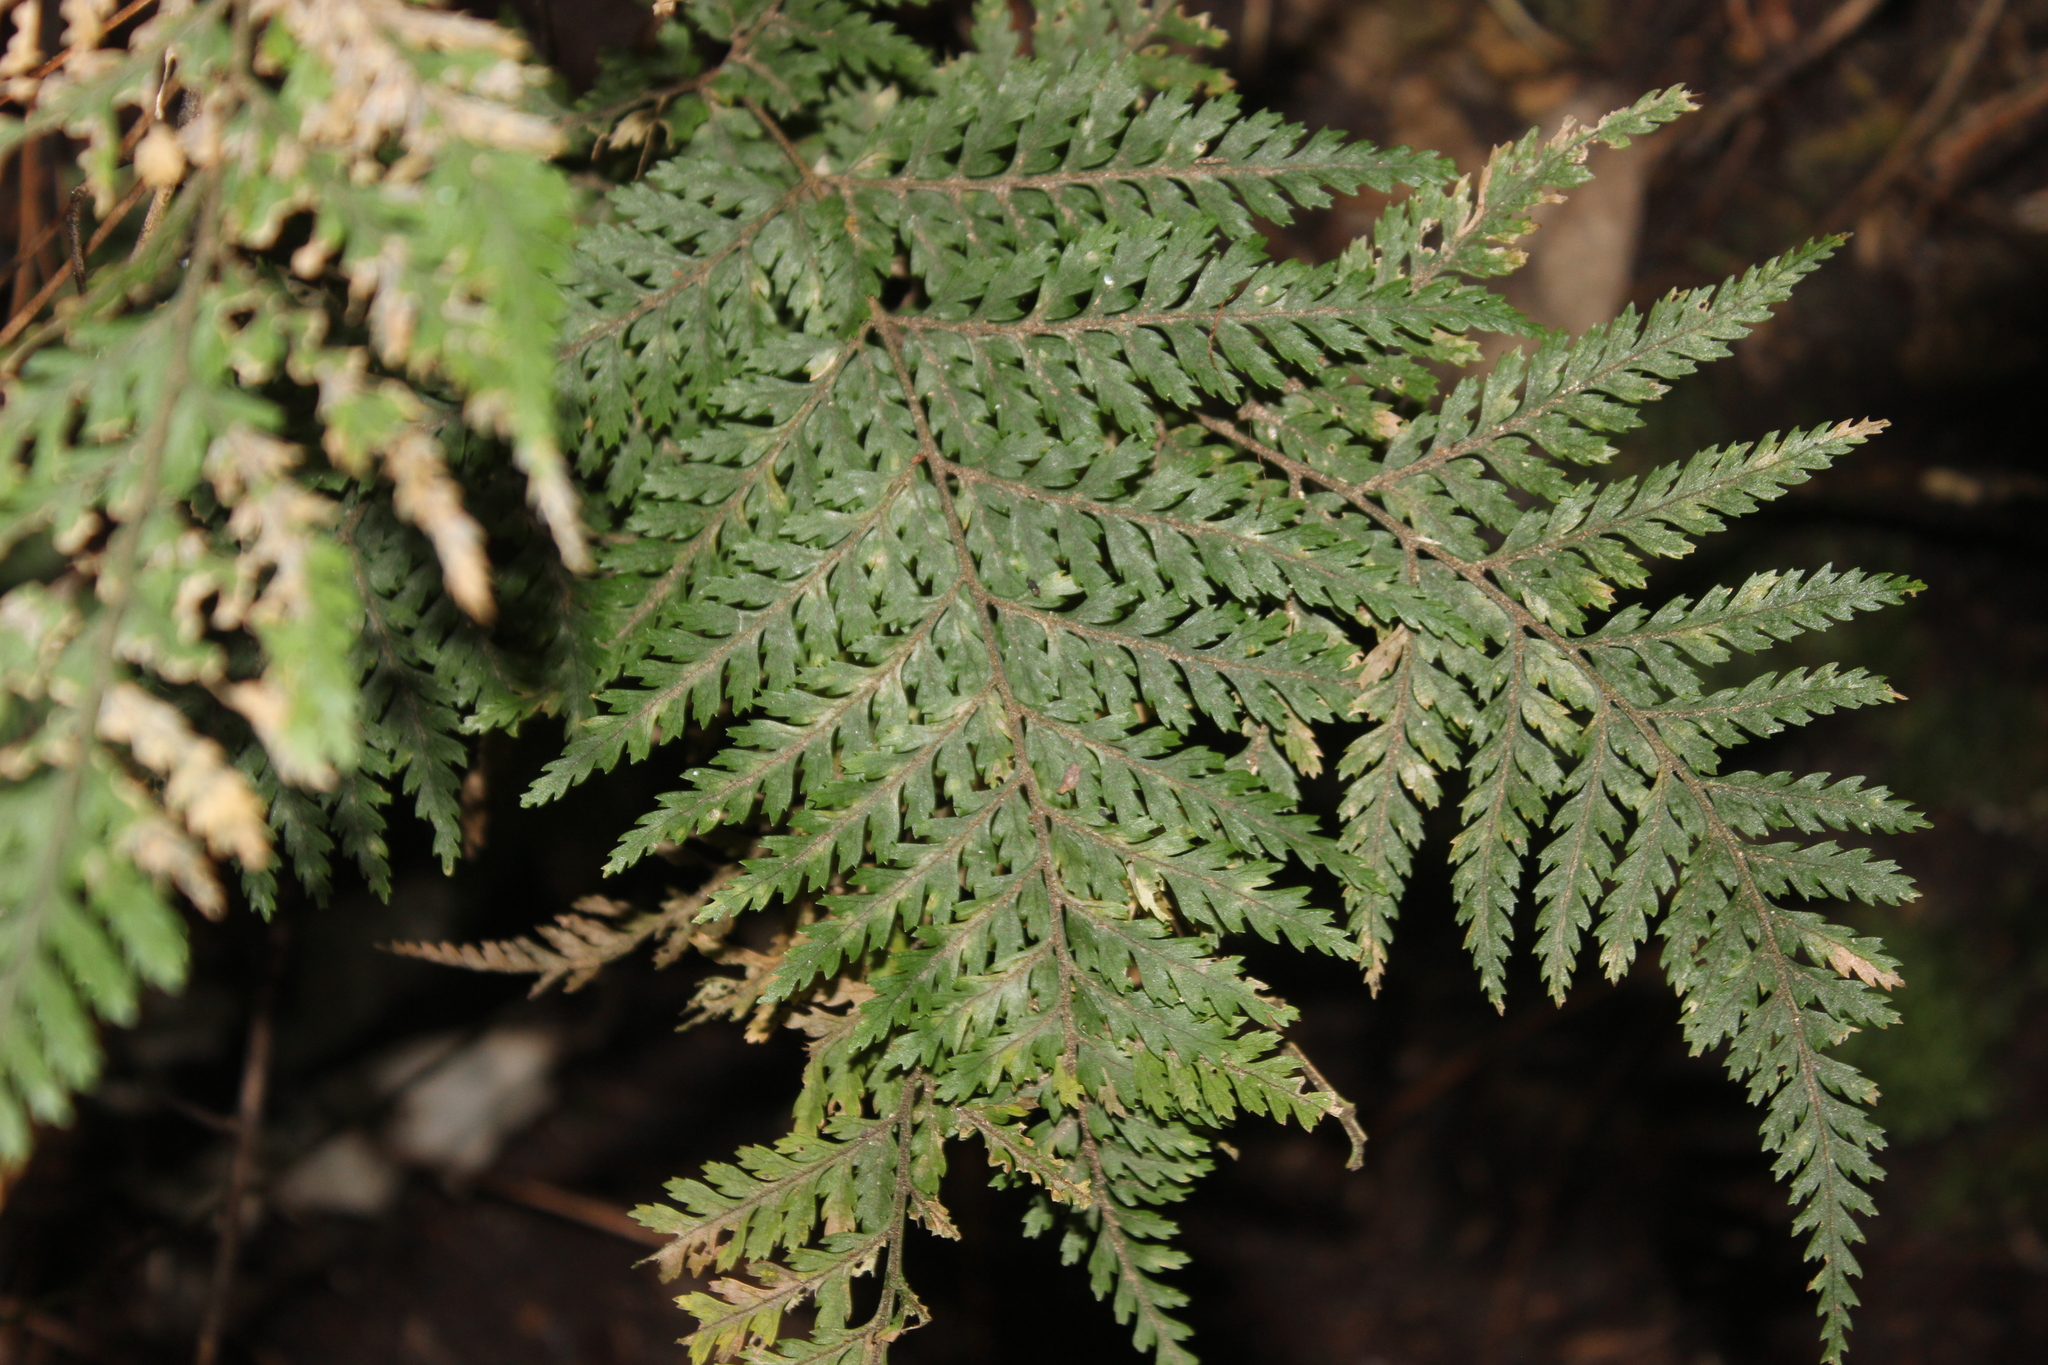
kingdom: Plantae
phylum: Tracheophyta
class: Polypodiopsida
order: Polypodiales
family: Dryopteridaceae
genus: Parapolystichum
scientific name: Parapolystichum glabellum
